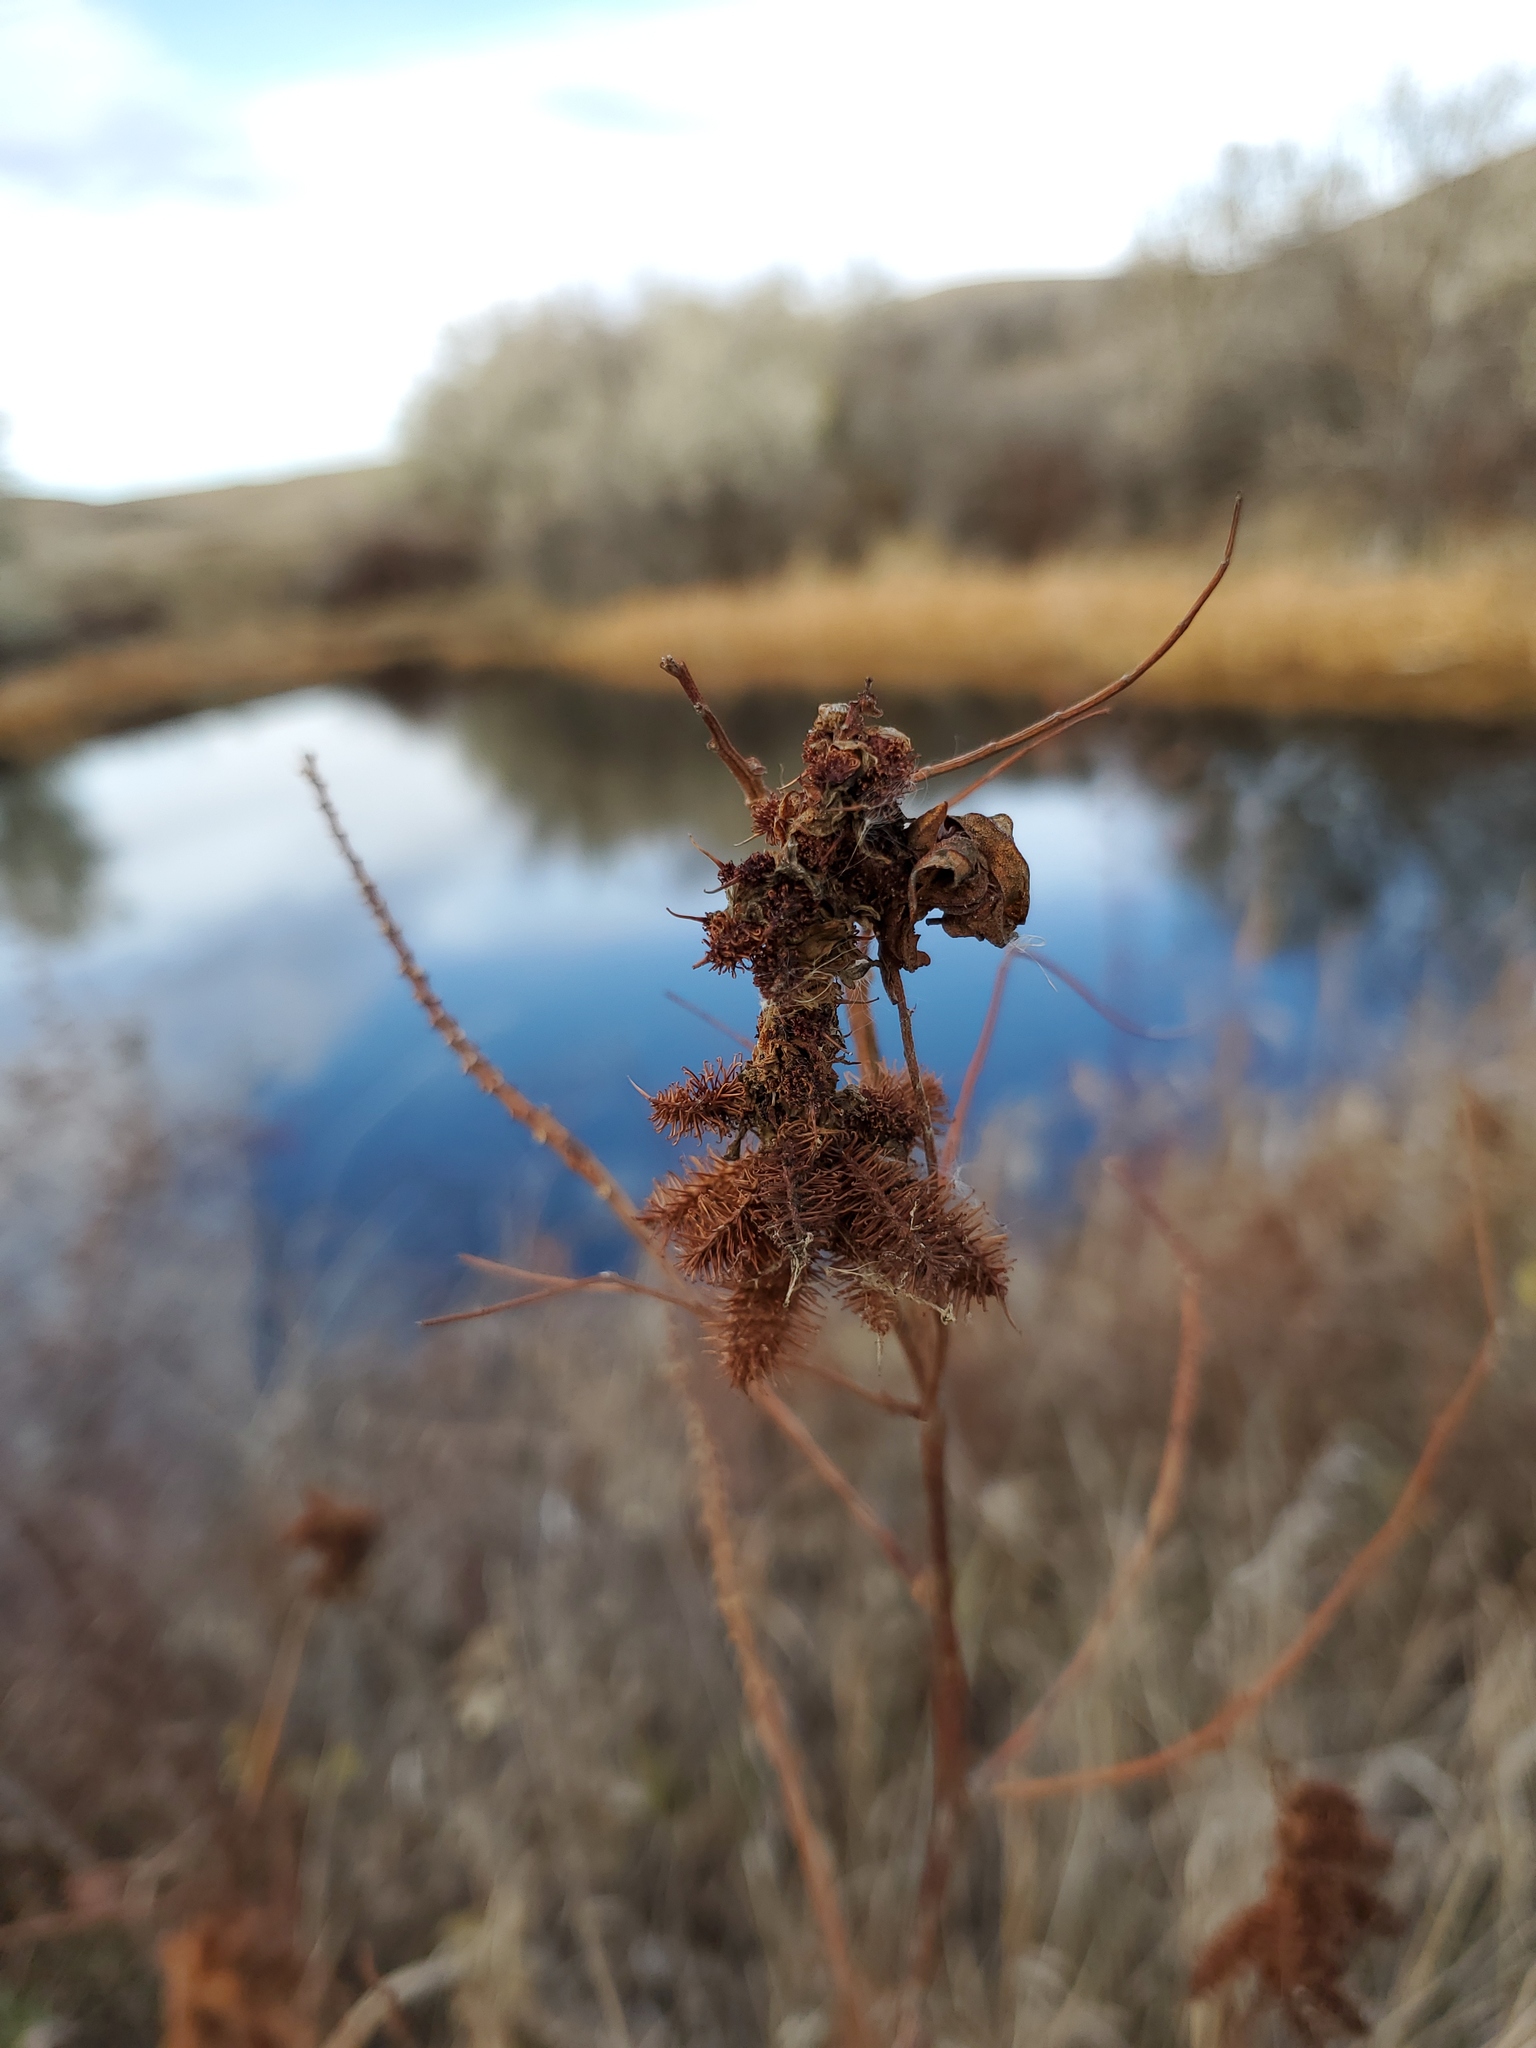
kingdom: Plantae
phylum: Tracheophyta
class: Magnoliopsida
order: Fabales
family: Fabaceae
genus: Glycyrrhiza
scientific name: Glycyrrhiza lepidota
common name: American liquorice
